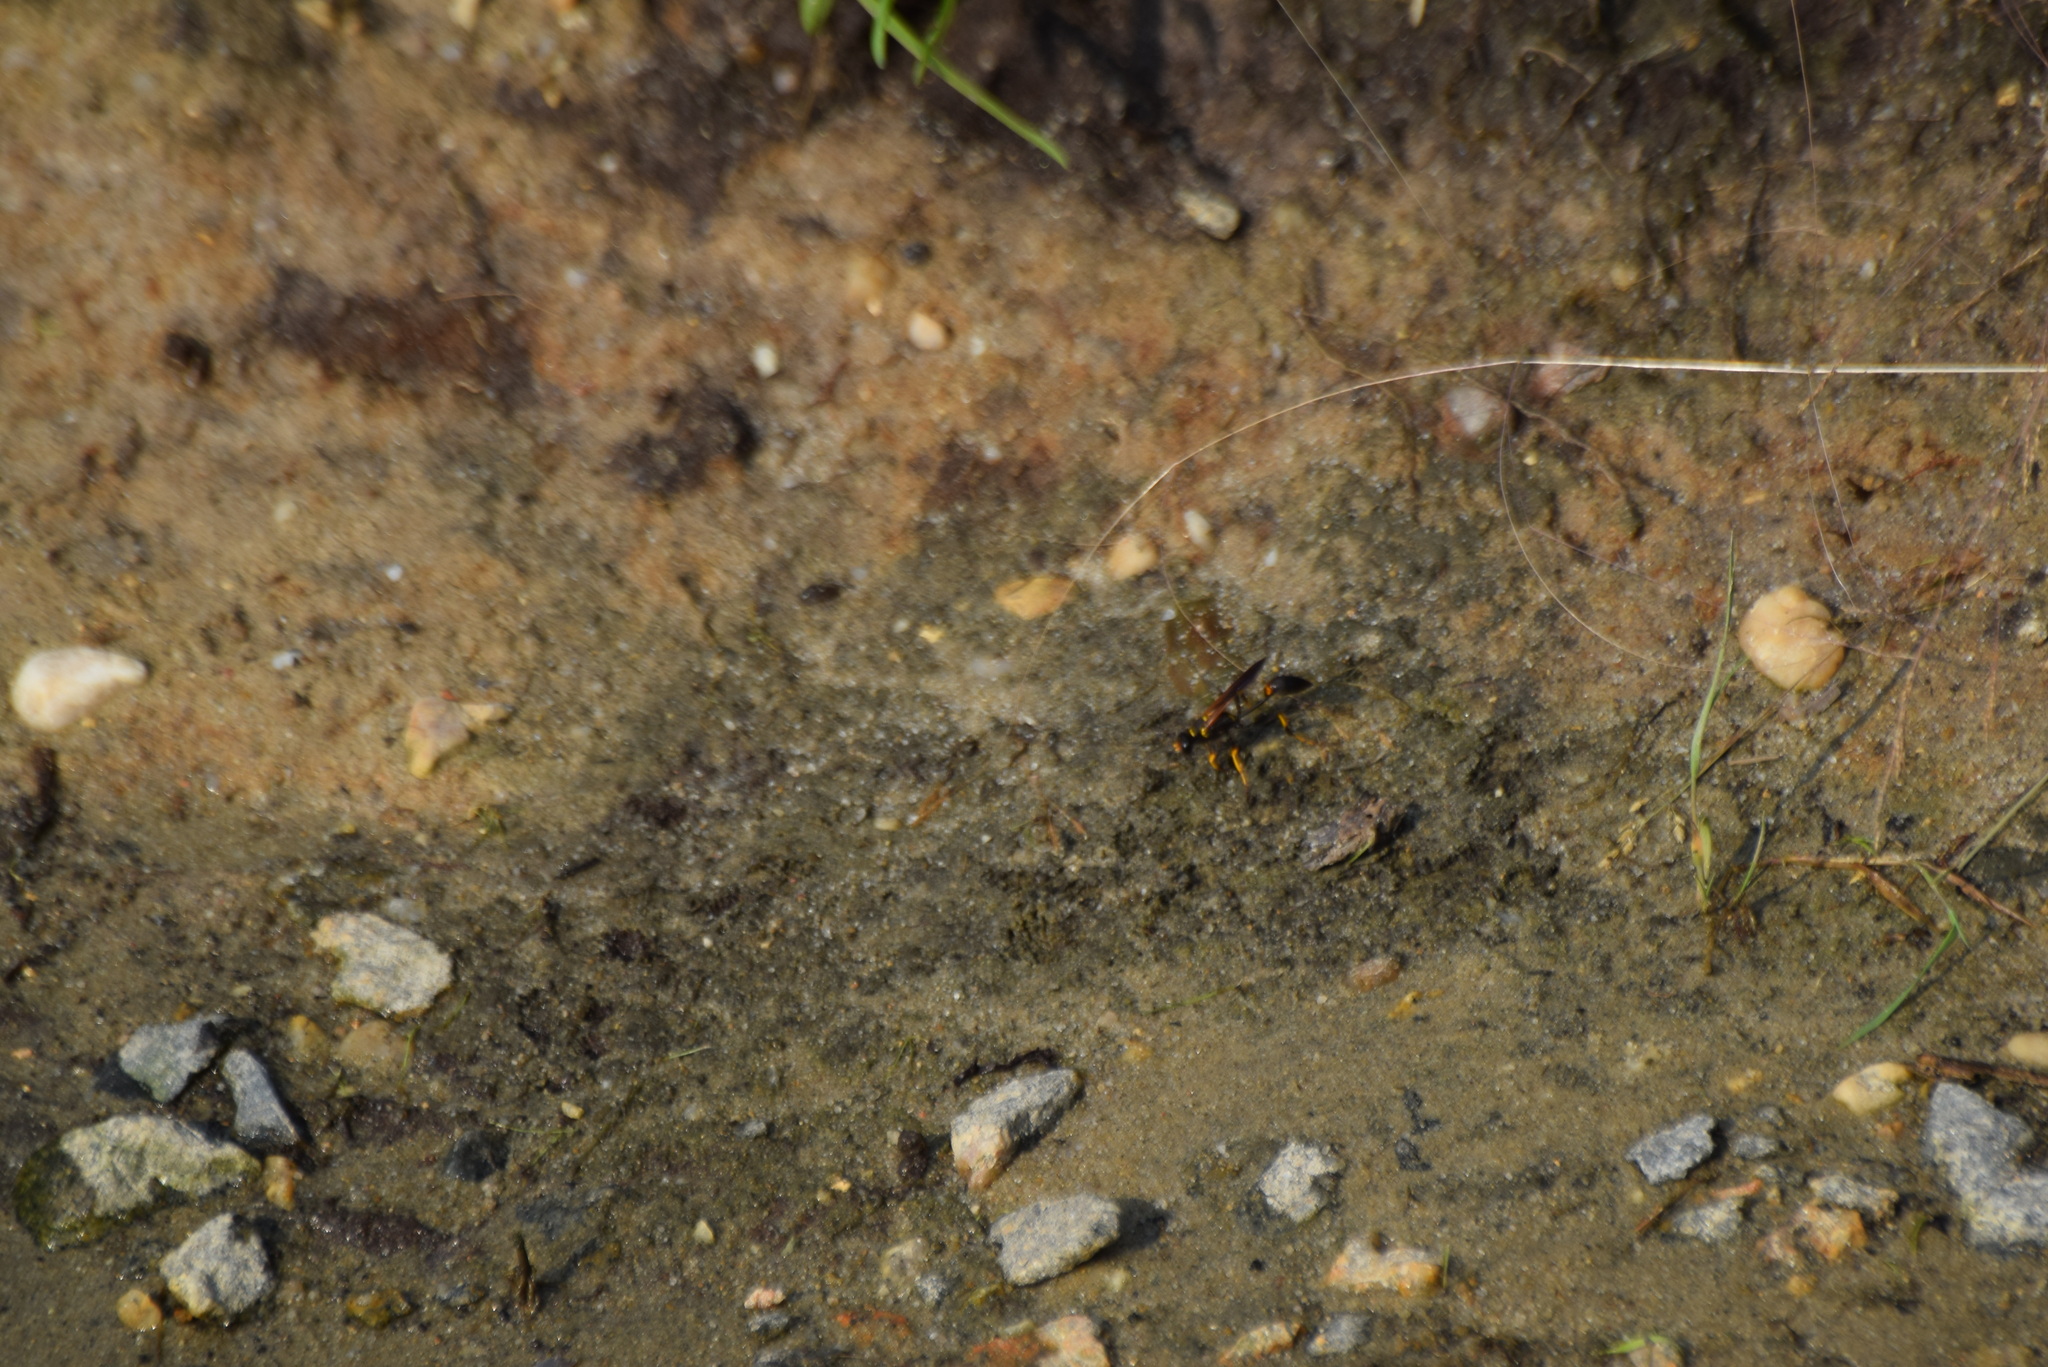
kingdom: Animalia
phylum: Arthropoda
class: Insecta
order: Hymenoptera
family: Sphecidae
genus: Sceliphron
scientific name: Sceliphron caementarium
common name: Mud dauber
